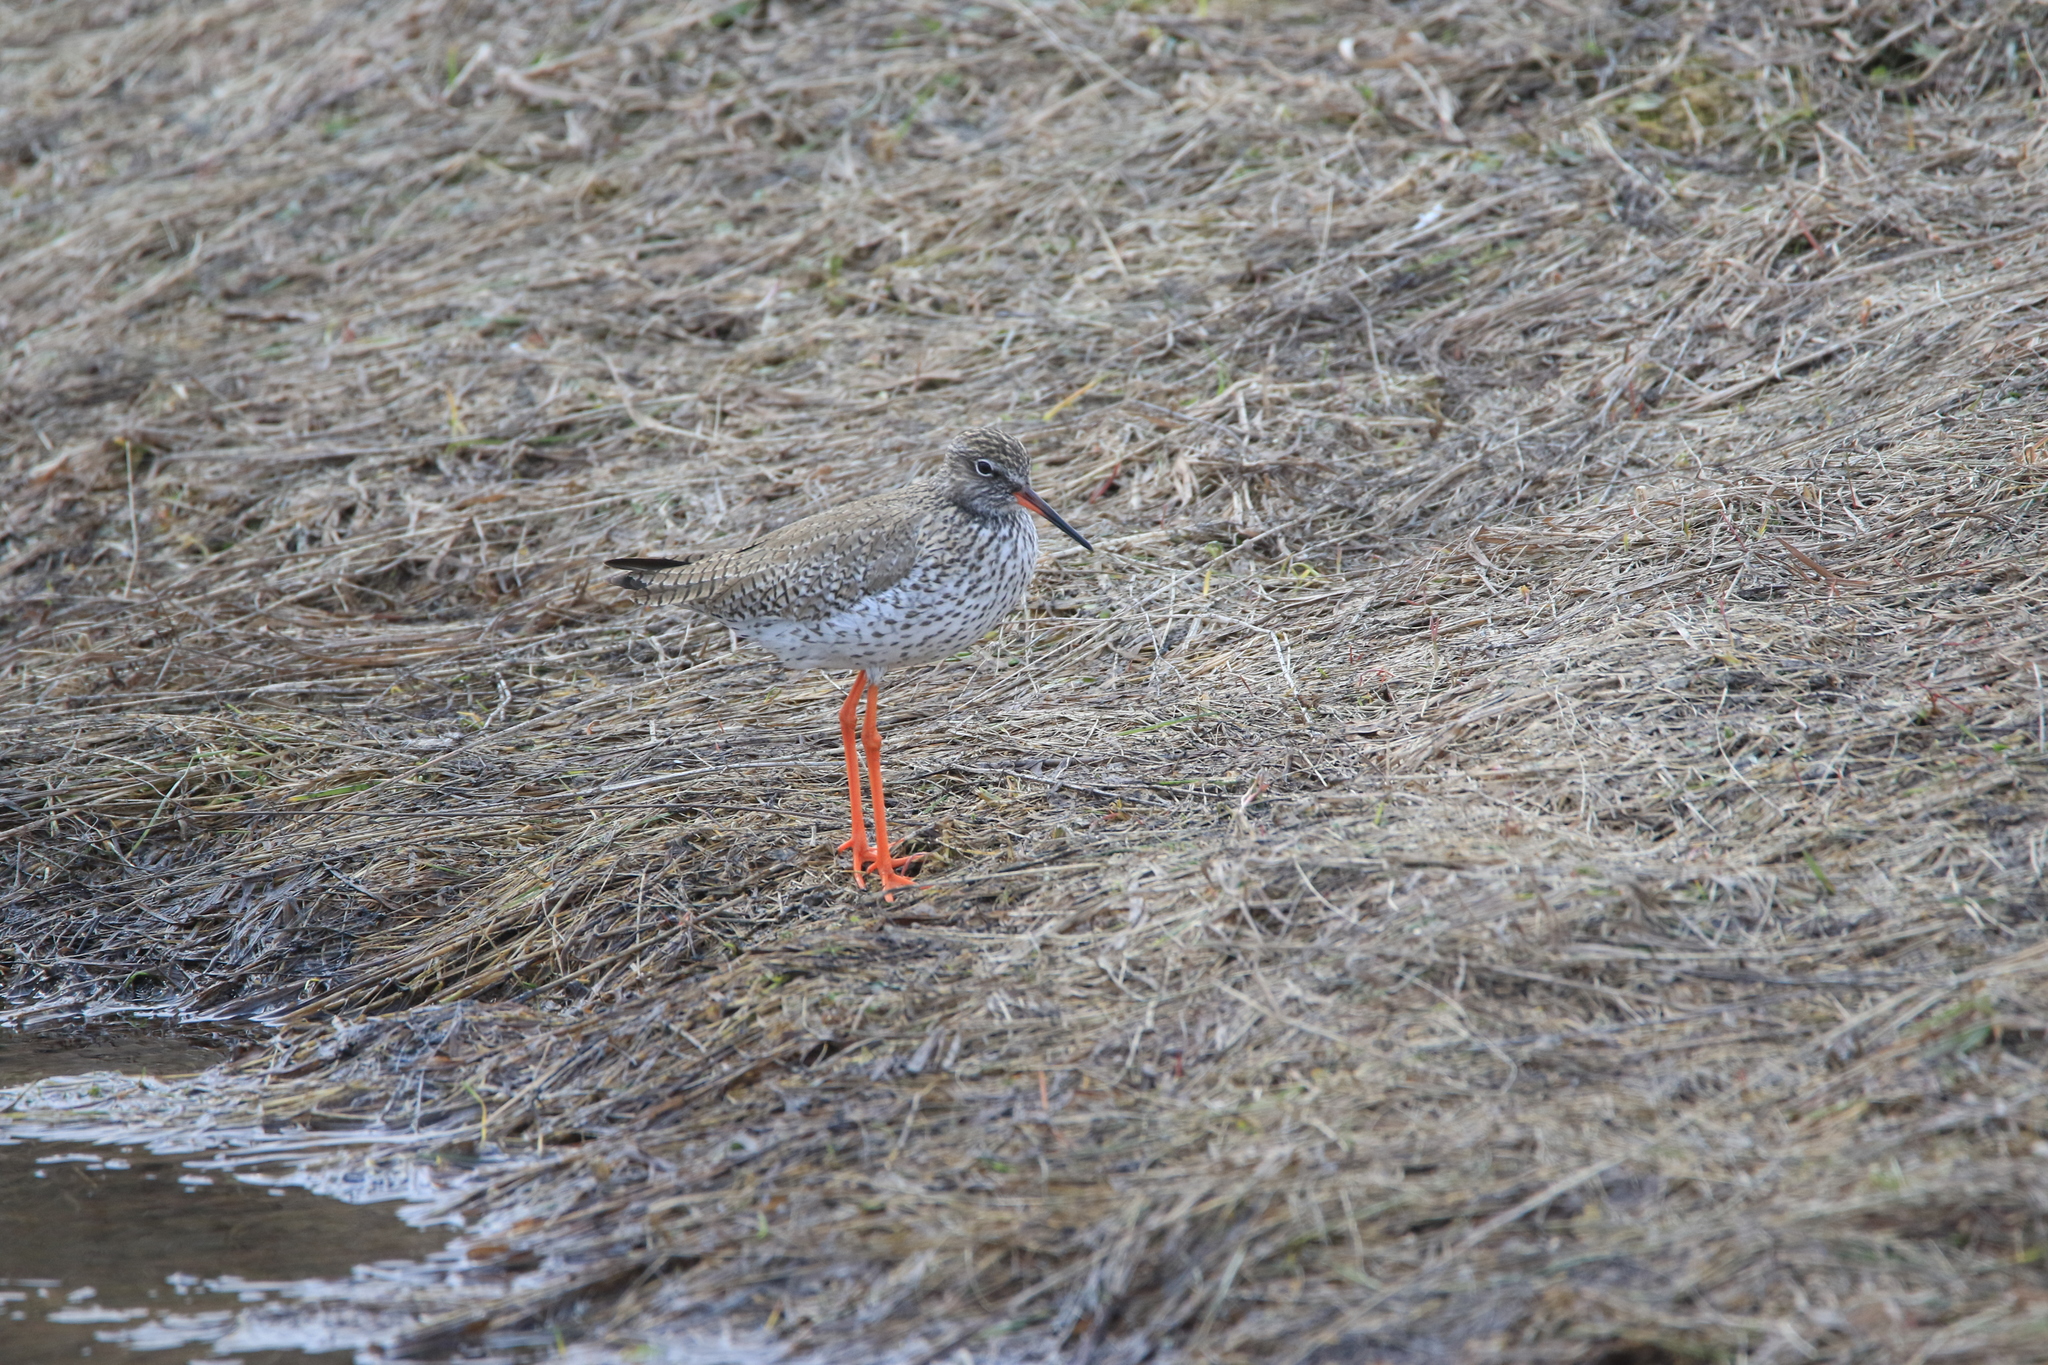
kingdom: Animalia
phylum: Chordata
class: Aves
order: Charadriiformes
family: Scolopacidae
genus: Tringa
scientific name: Tringa totanus
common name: Common redshank
